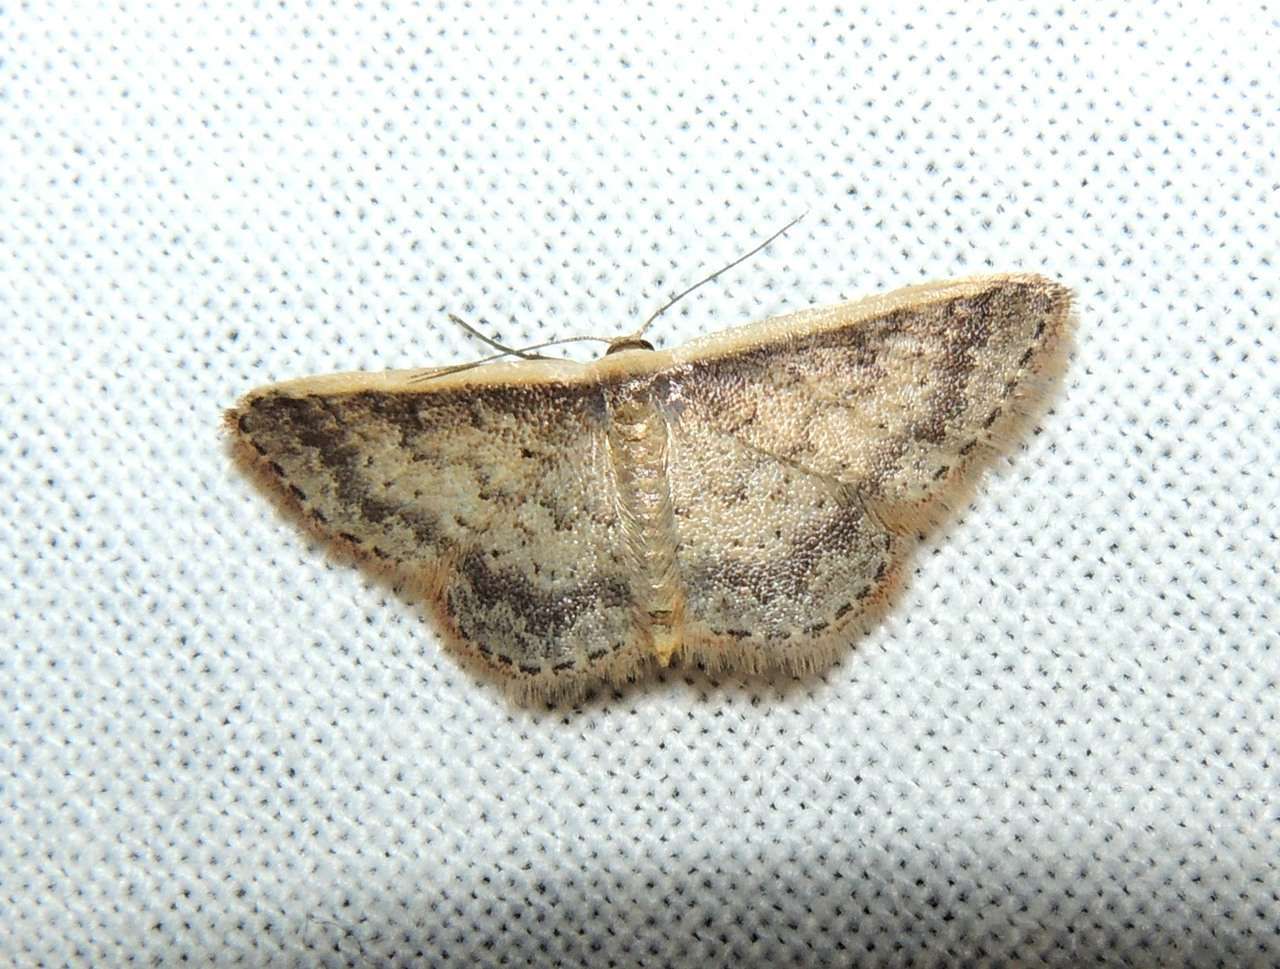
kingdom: Animalia
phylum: Arthropoda
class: Insecta
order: Lepidoptera
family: Geometridae
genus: Idaea
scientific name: Idaea nephelota
